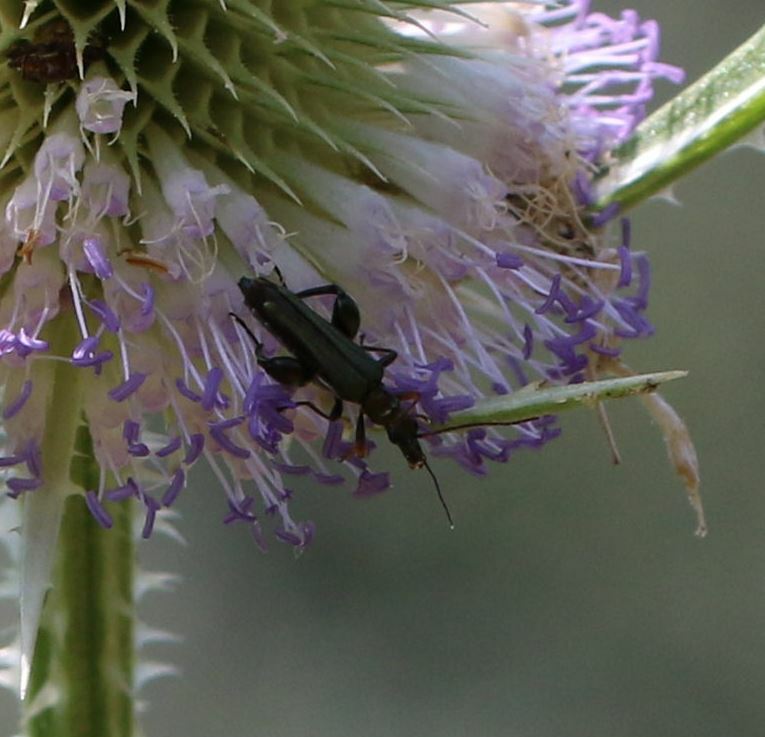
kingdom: Animalia
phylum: Arthropoda
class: Insecta
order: Coleoptera
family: Oedemeridae
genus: Oedemera
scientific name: Oedemera flavipes
